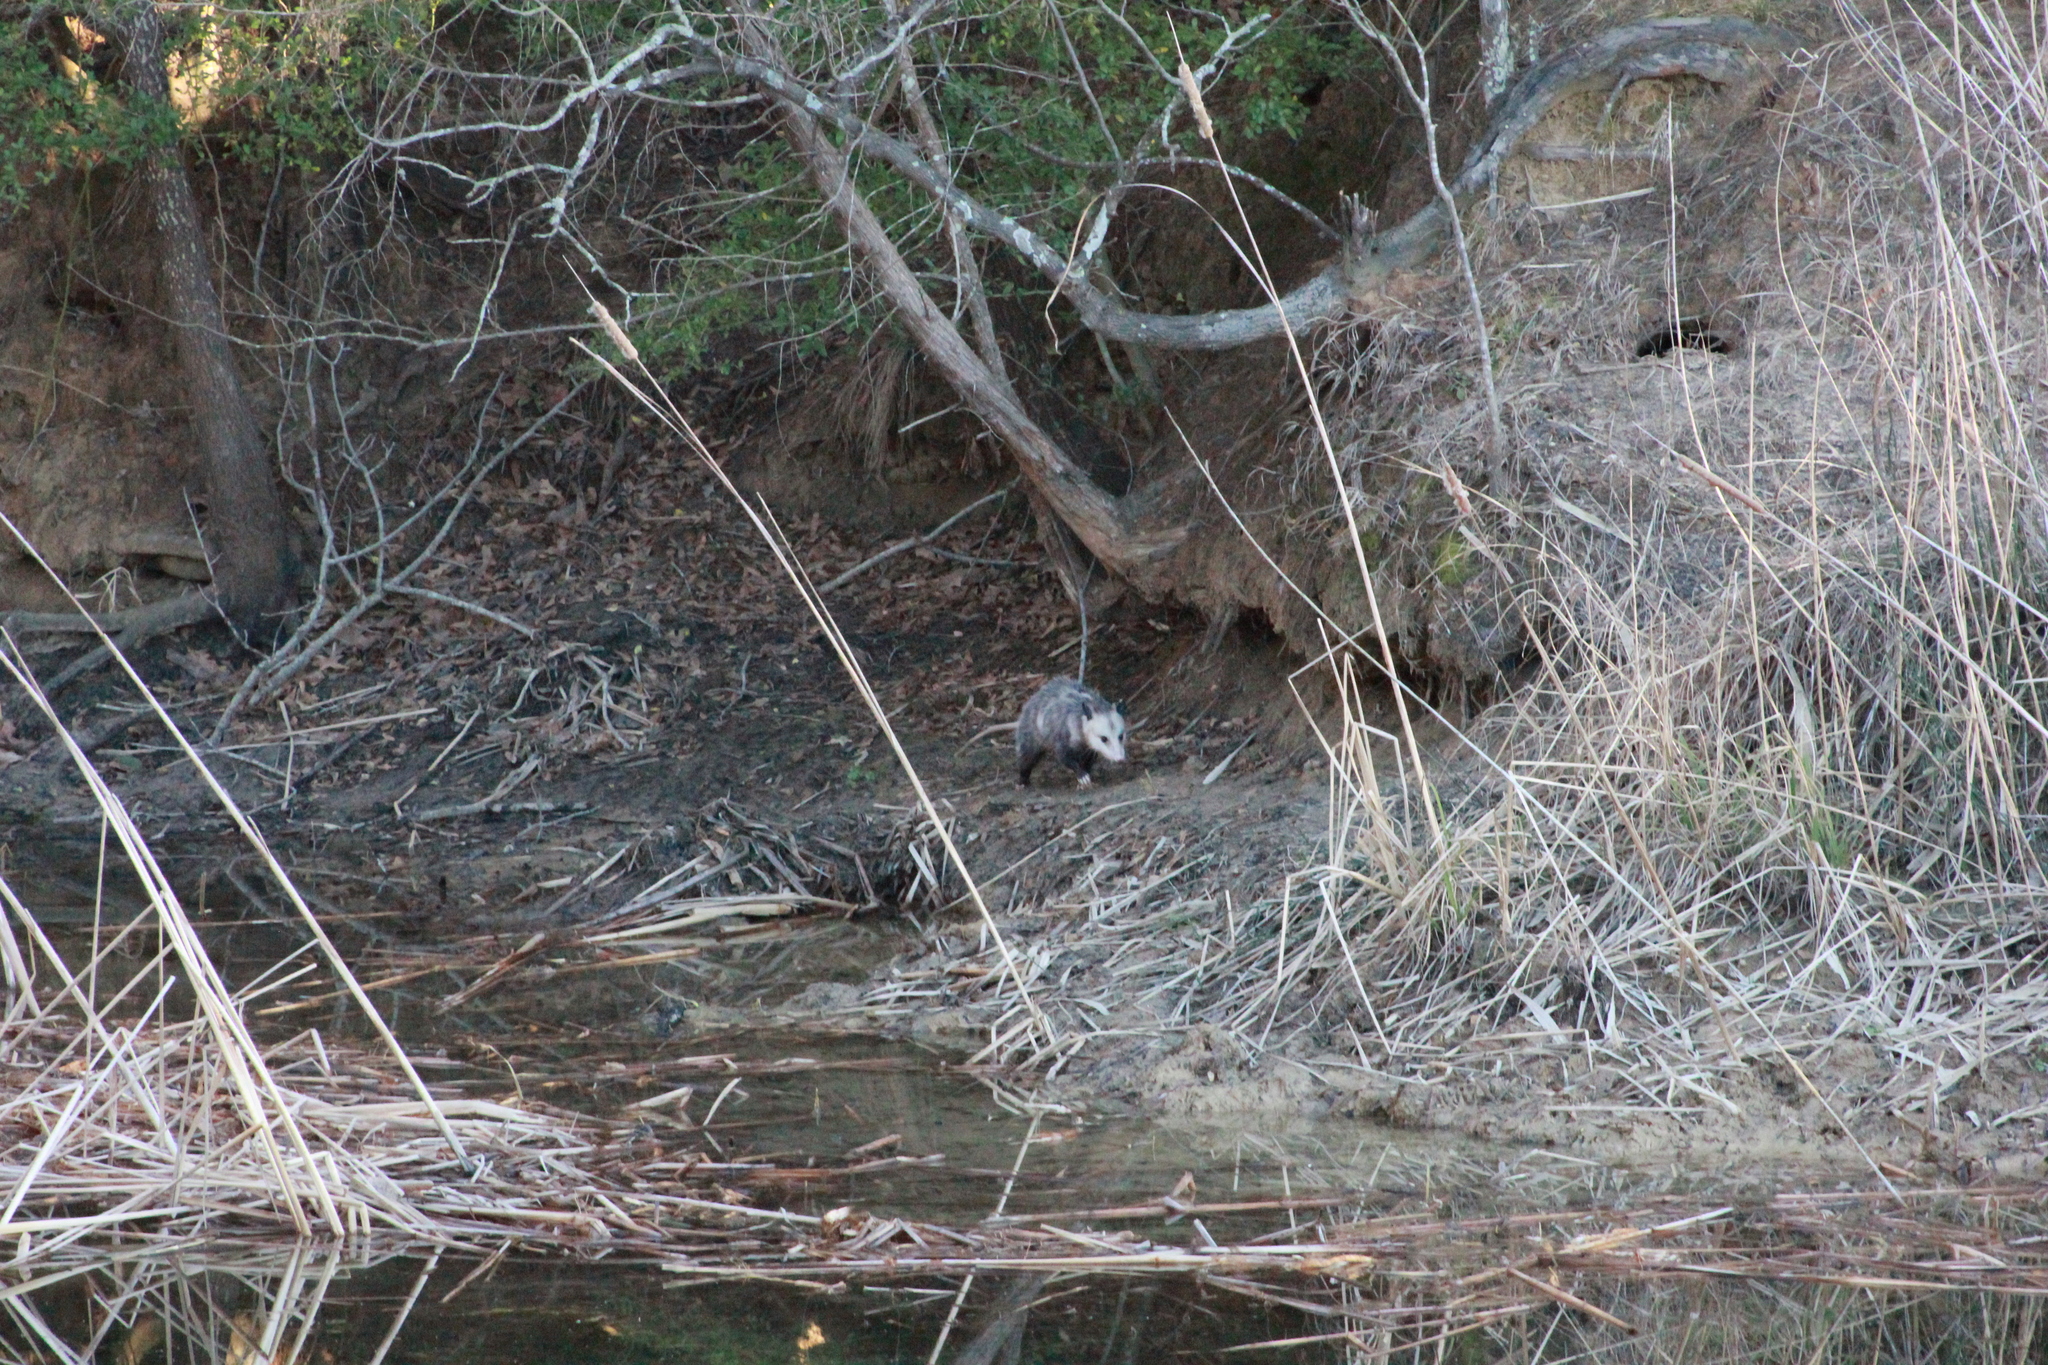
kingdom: Animalia
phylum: Chordata
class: Mammalia
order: Didelphimorphia
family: Didelphidae
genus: Didelphis
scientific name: Didelphis virginiana
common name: Virginia opossum
